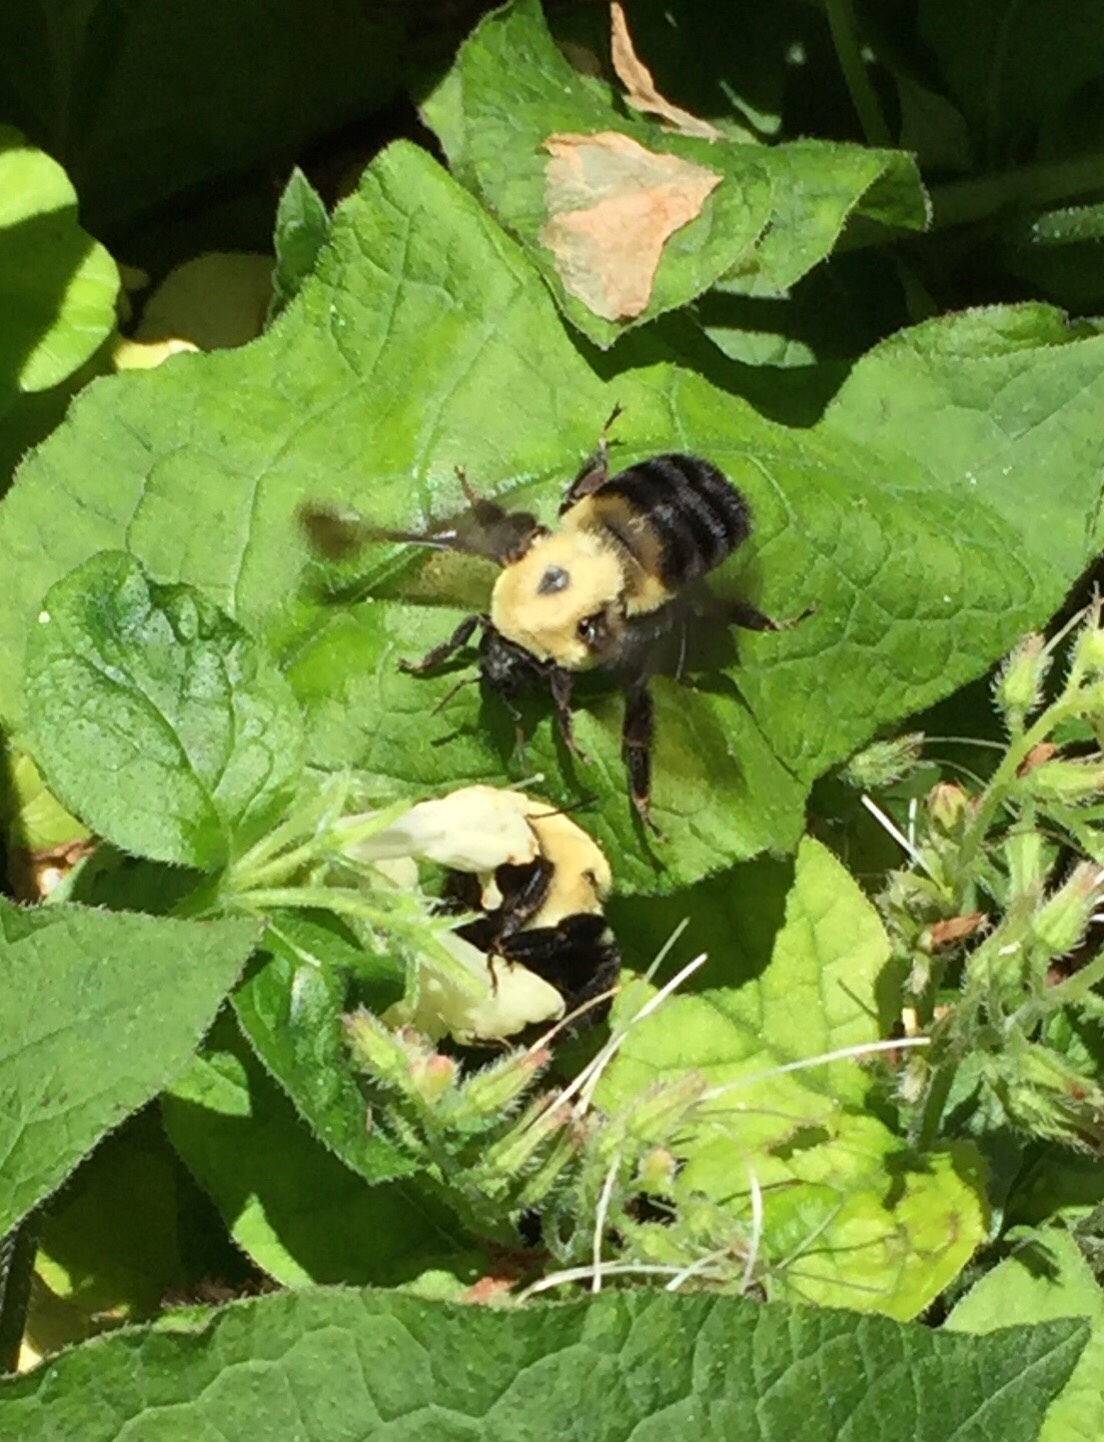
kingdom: Animalia
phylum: Arthropoda
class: Insecta
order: Hymenoptera
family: Apidae
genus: Bombus
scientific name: Bombus griseocollis
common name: Brown-belted bumble bee
